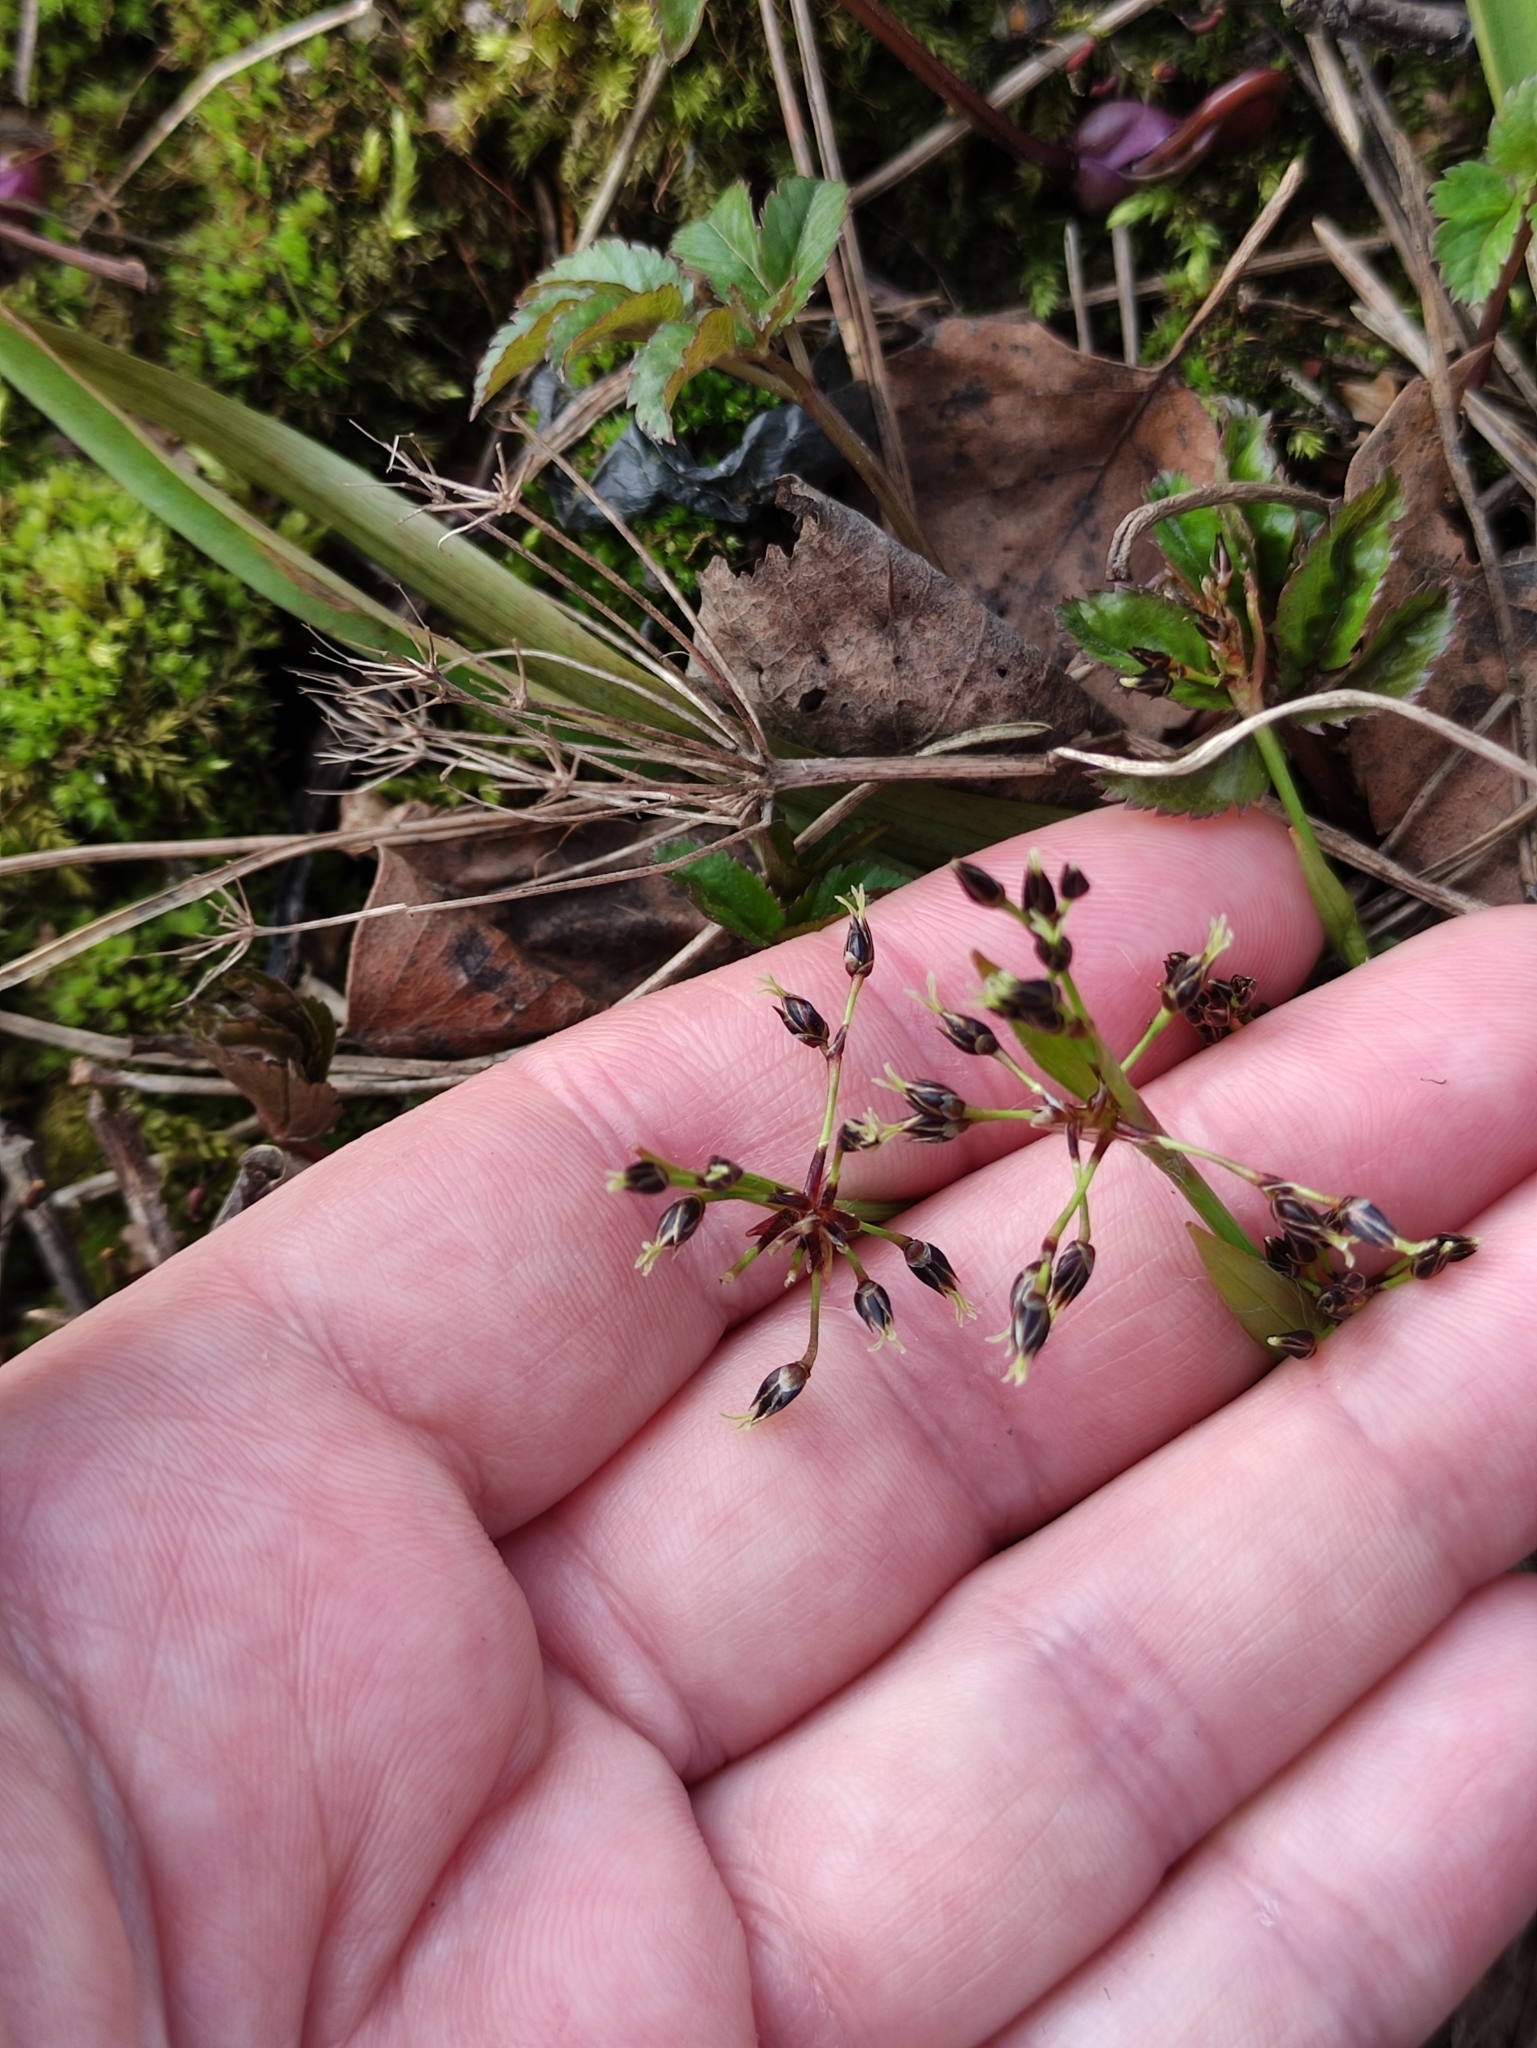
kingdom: Plantae
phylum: Tracheophyta
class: Liliopsida
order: Poales
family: Juncaceae
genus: Luzula
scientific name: Luzula pilosa
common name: Hairy wood-rush
